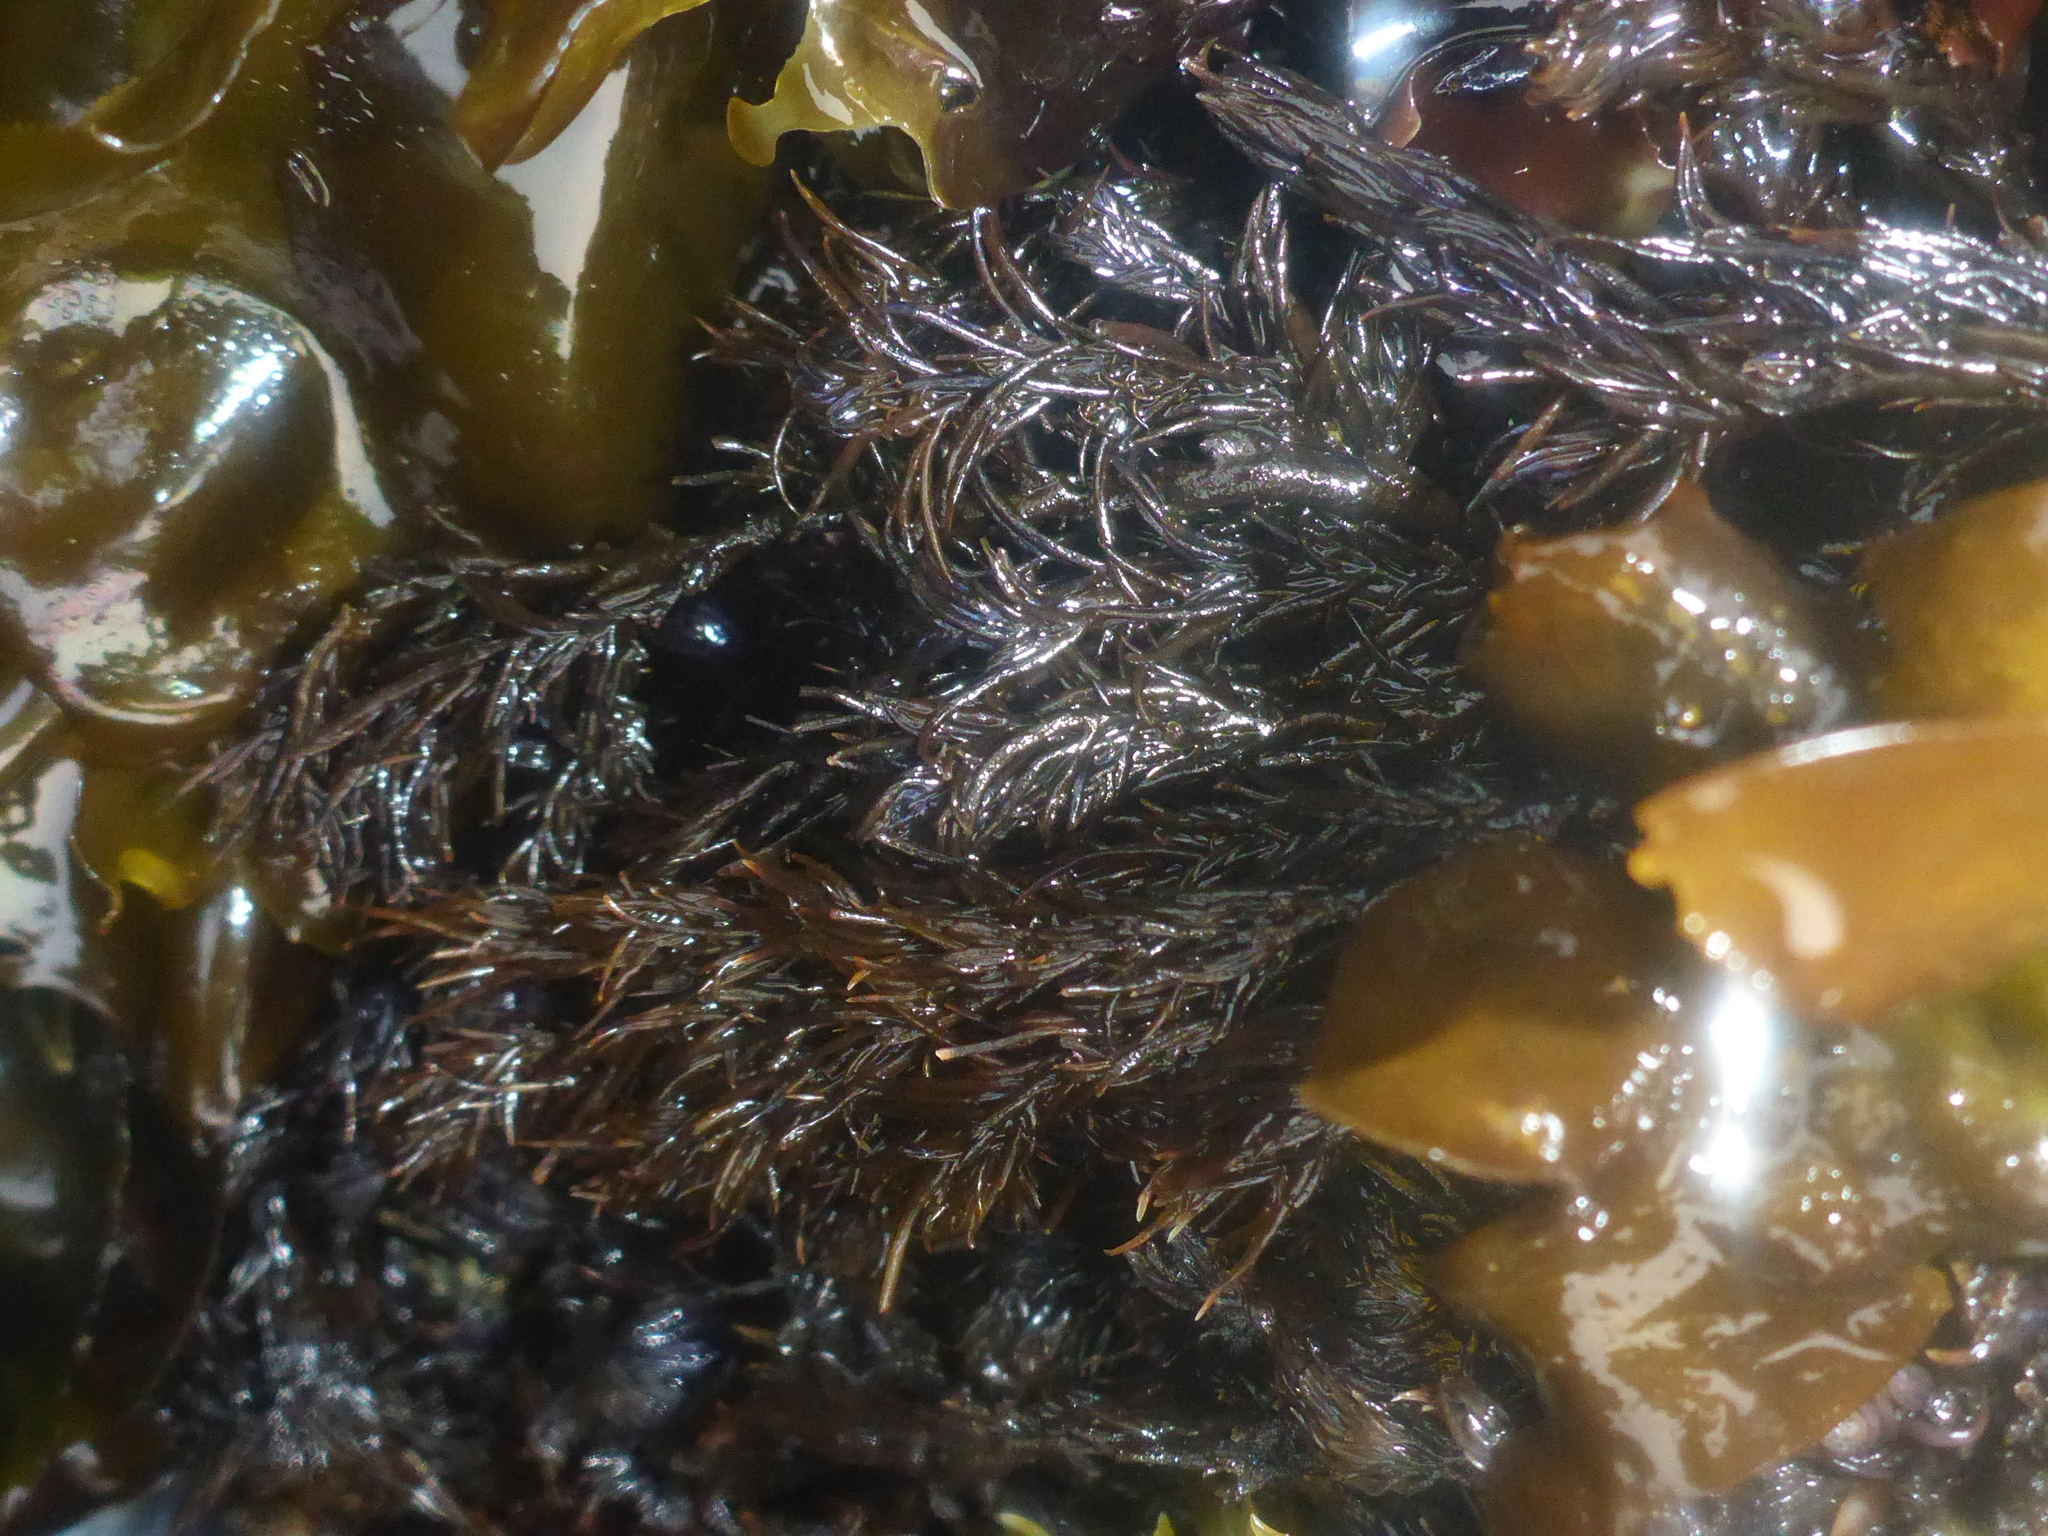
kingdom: Plantae
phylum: Rhodophyta
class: Florideophyceae
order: Ceramiales
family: Rhodomelaceae
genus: Neorhodomela
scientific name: Neorhodomela larix
